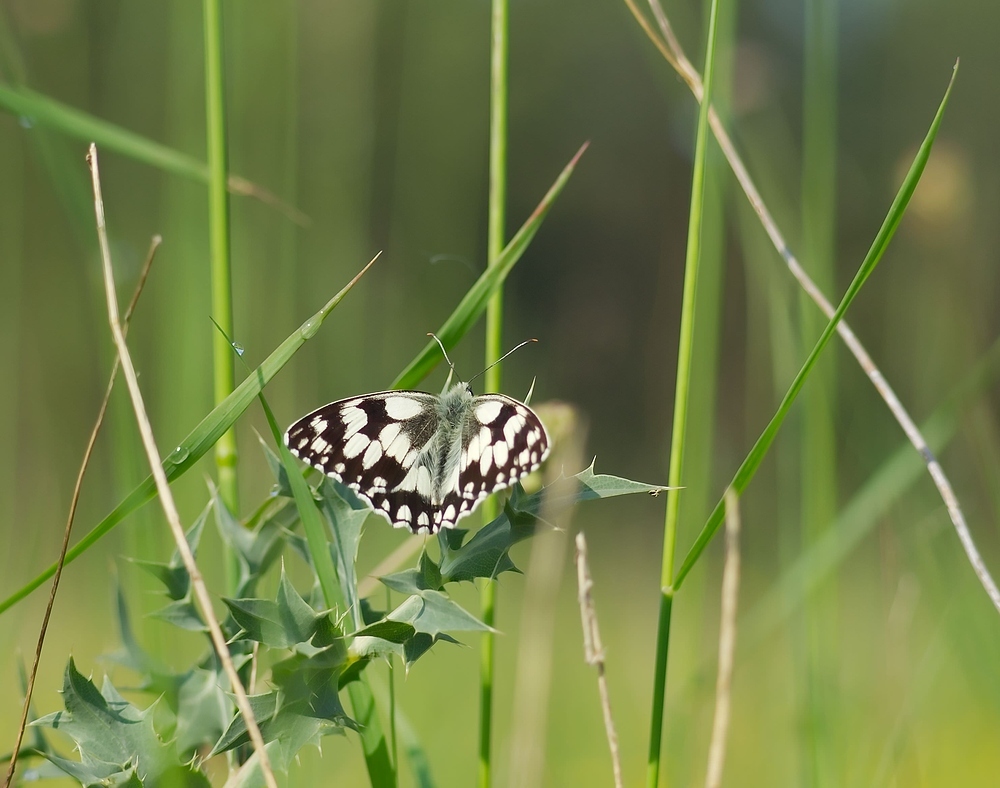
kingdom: Animalia
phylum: Arthropoda
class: Insecta
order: Lepidoptera
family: Nymphalidae
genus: Melanargia
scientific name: Melanargia galathea
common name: Marbled white
